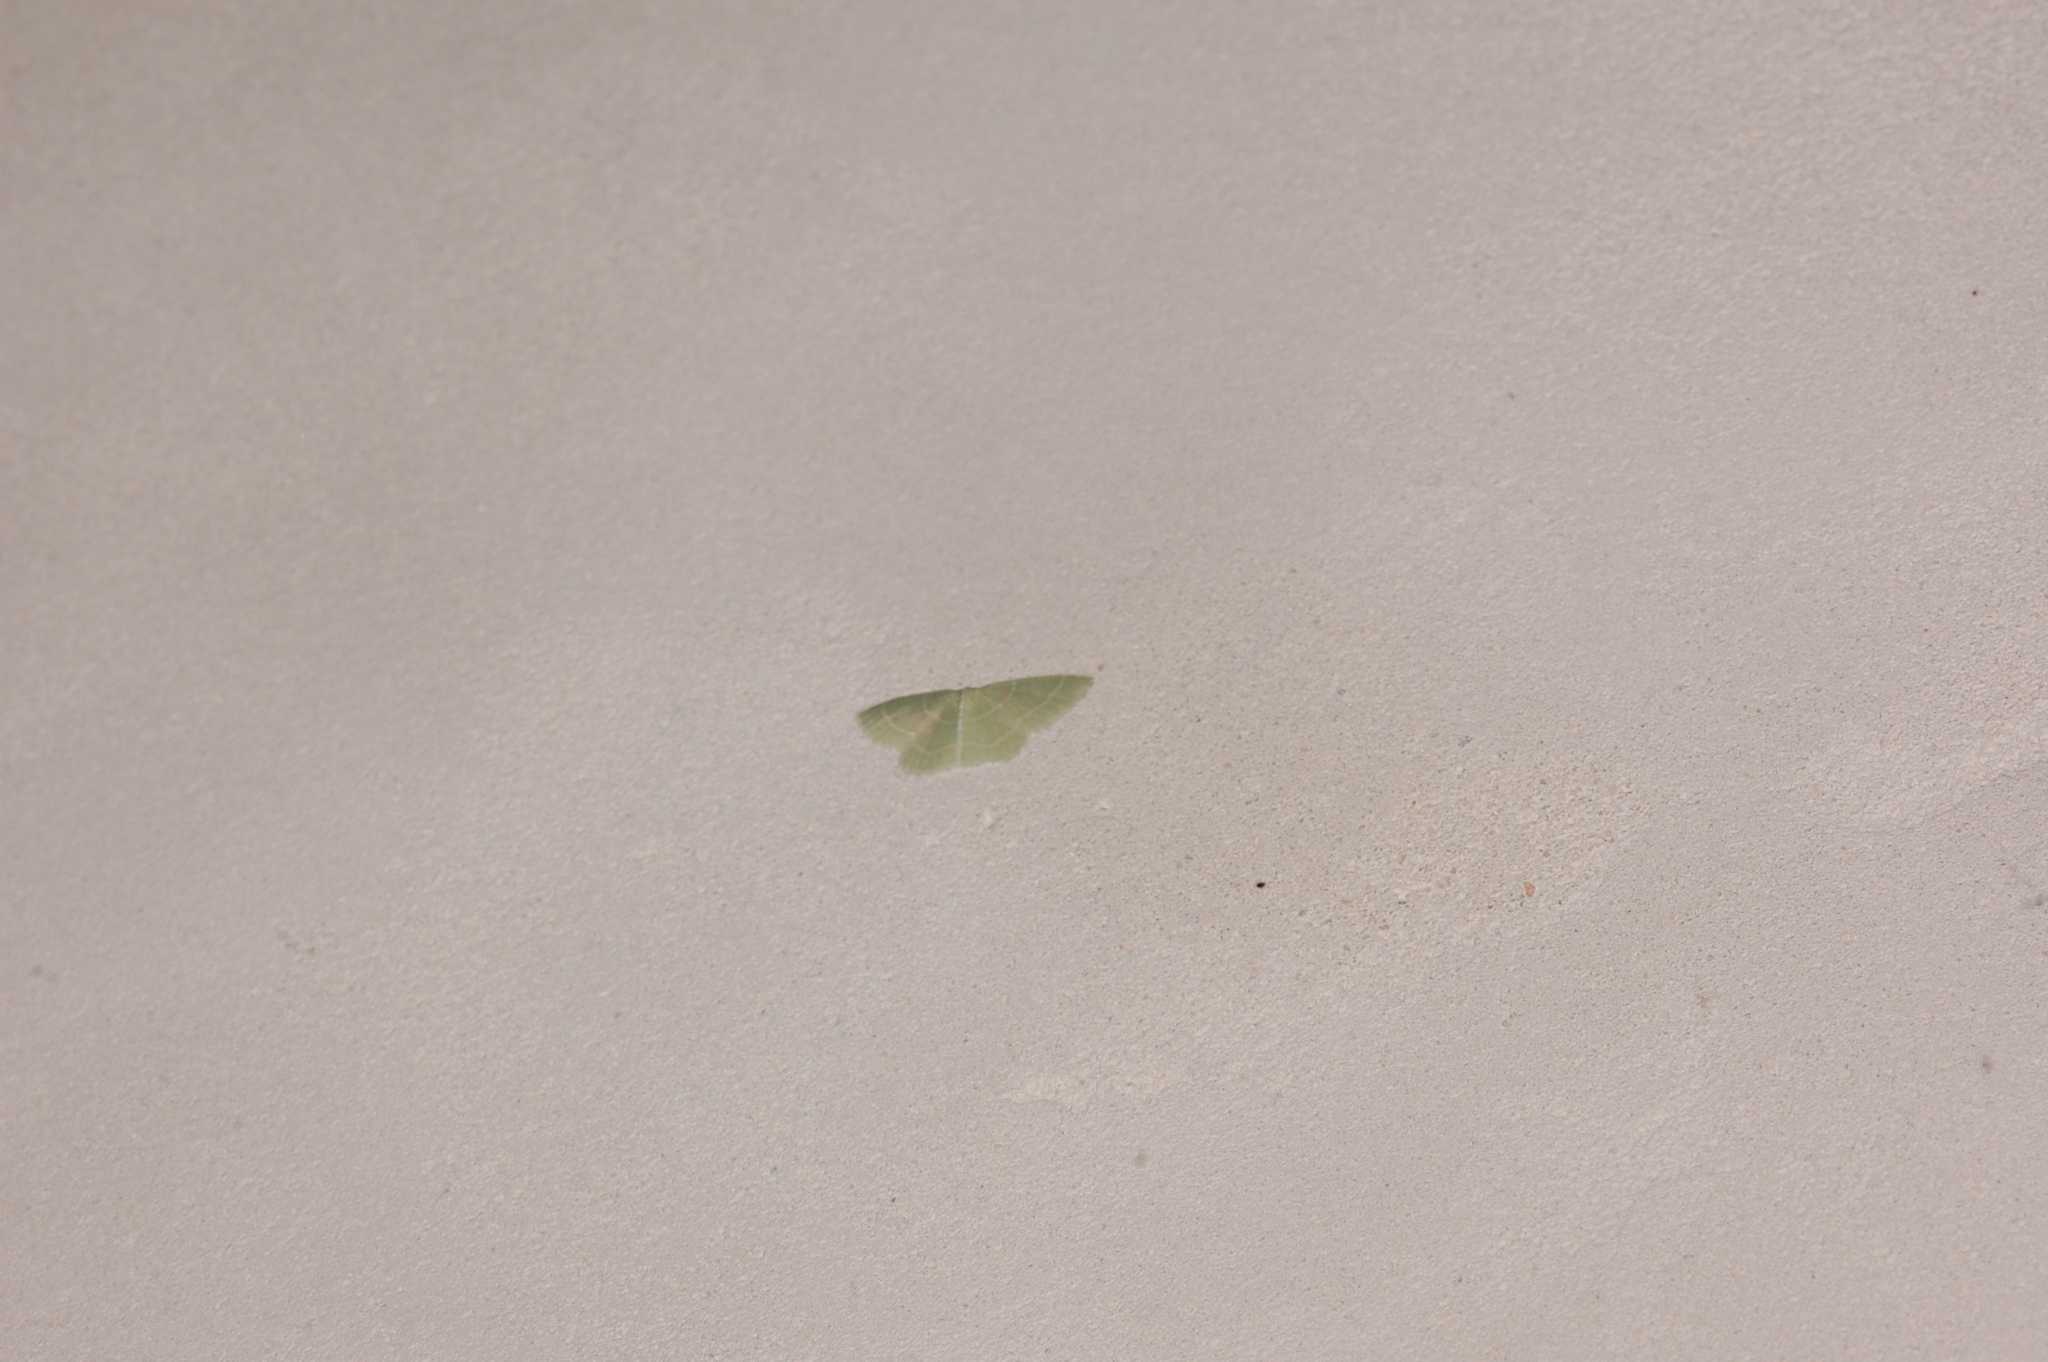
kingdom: Animalia
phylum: Arthropoda
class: Insecta
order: Lepidoptera
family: Geometridae
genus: Synchlora
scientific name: Synchlora aerata
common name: Wavy-lined emerald
